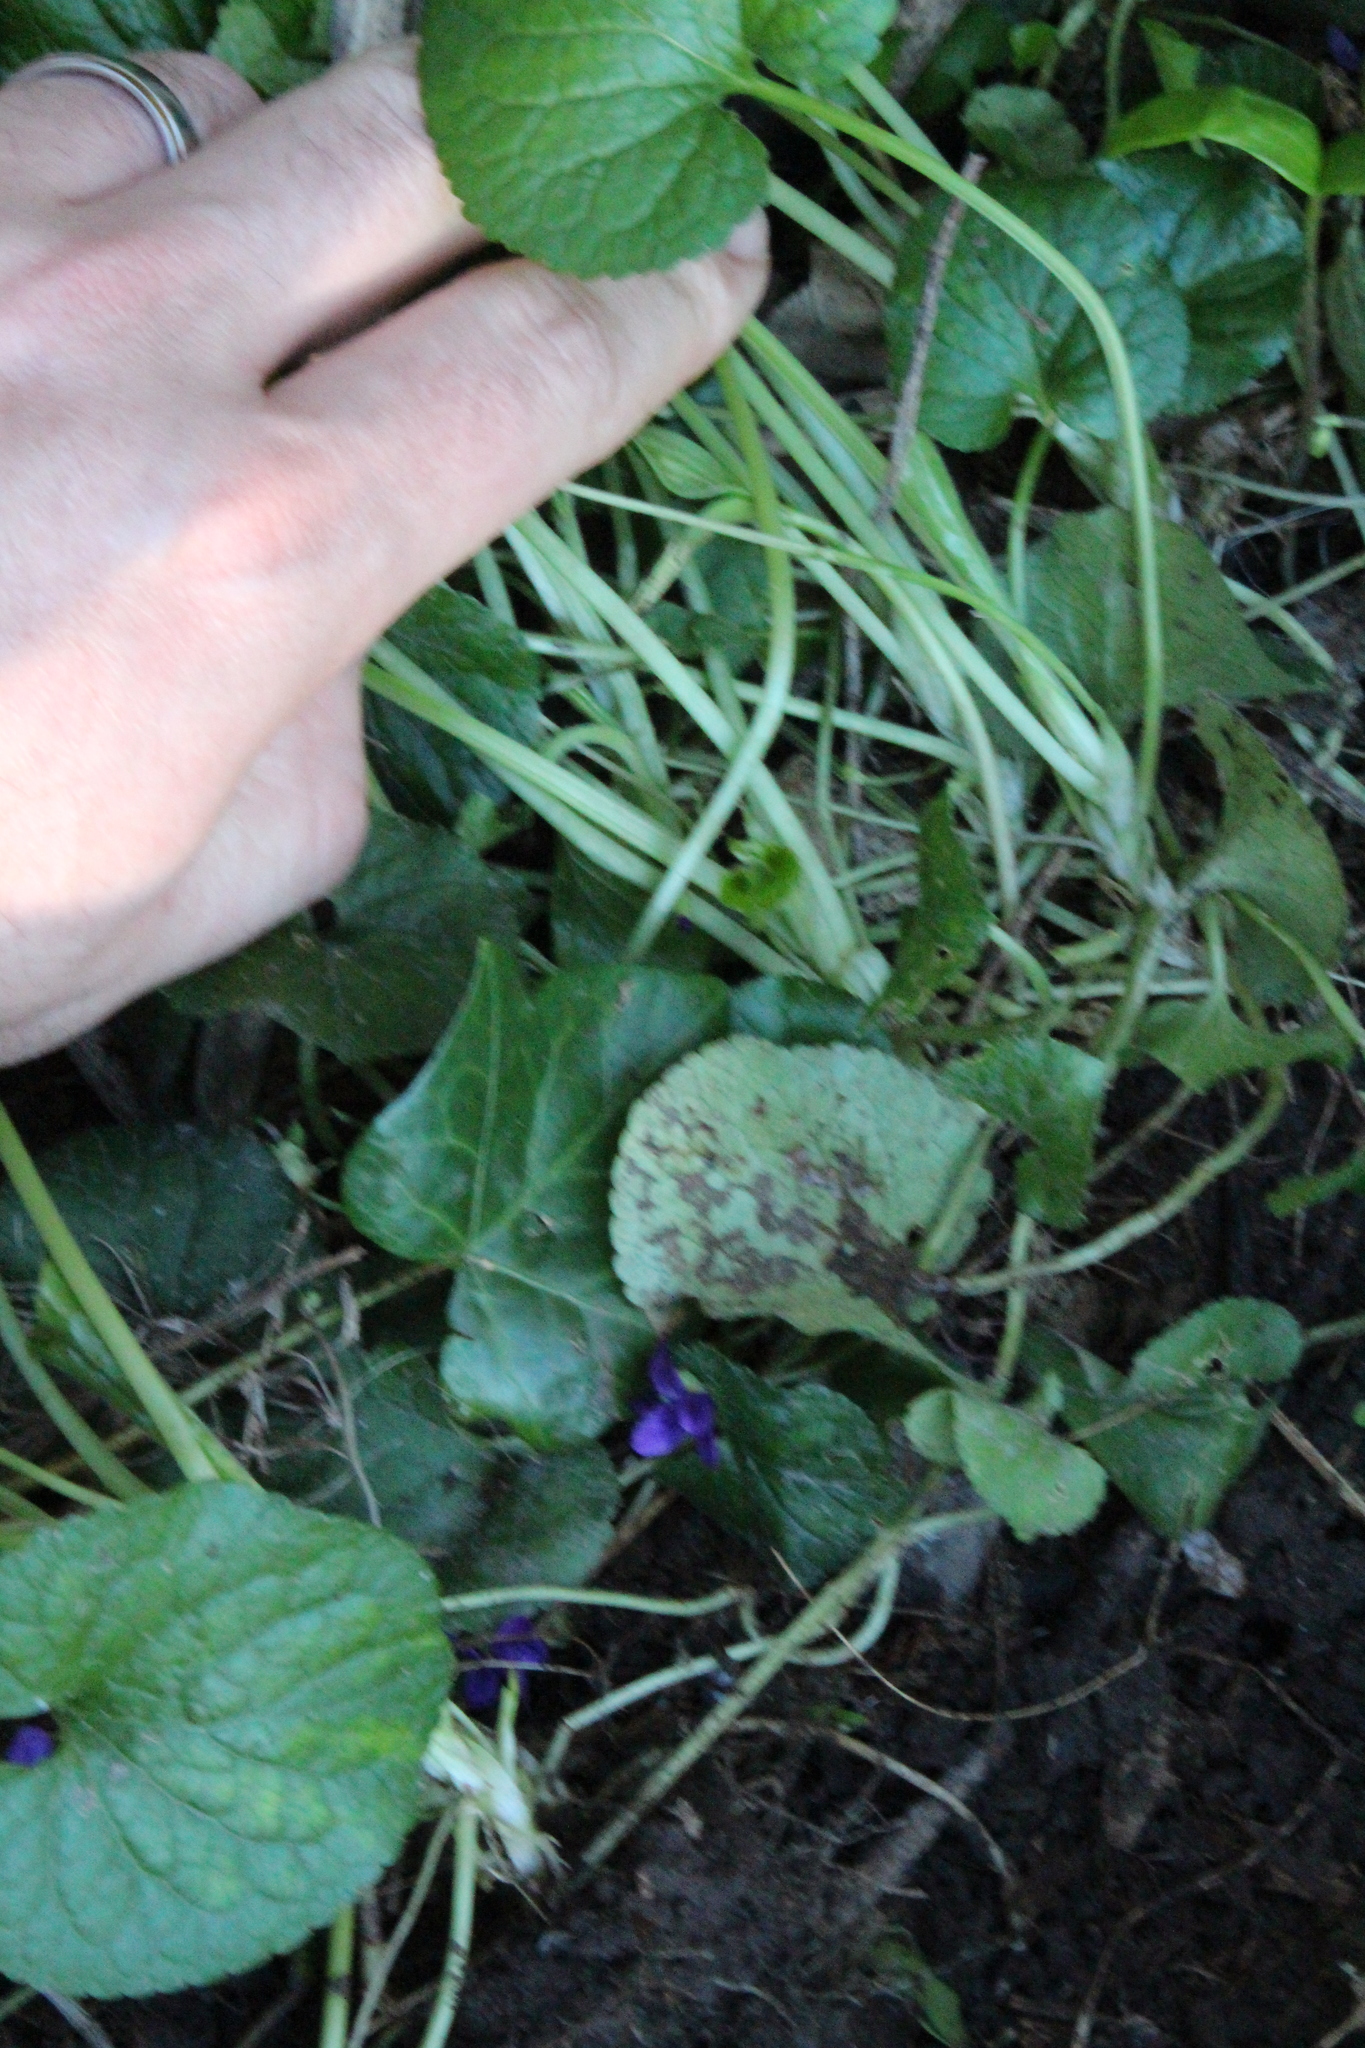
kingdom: Plantae
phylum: Tracheophyta
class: Magnoliopsida
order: Malpighiales
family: Violaceae
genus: Viola
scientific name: Viola odorata
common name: Sweet violet
